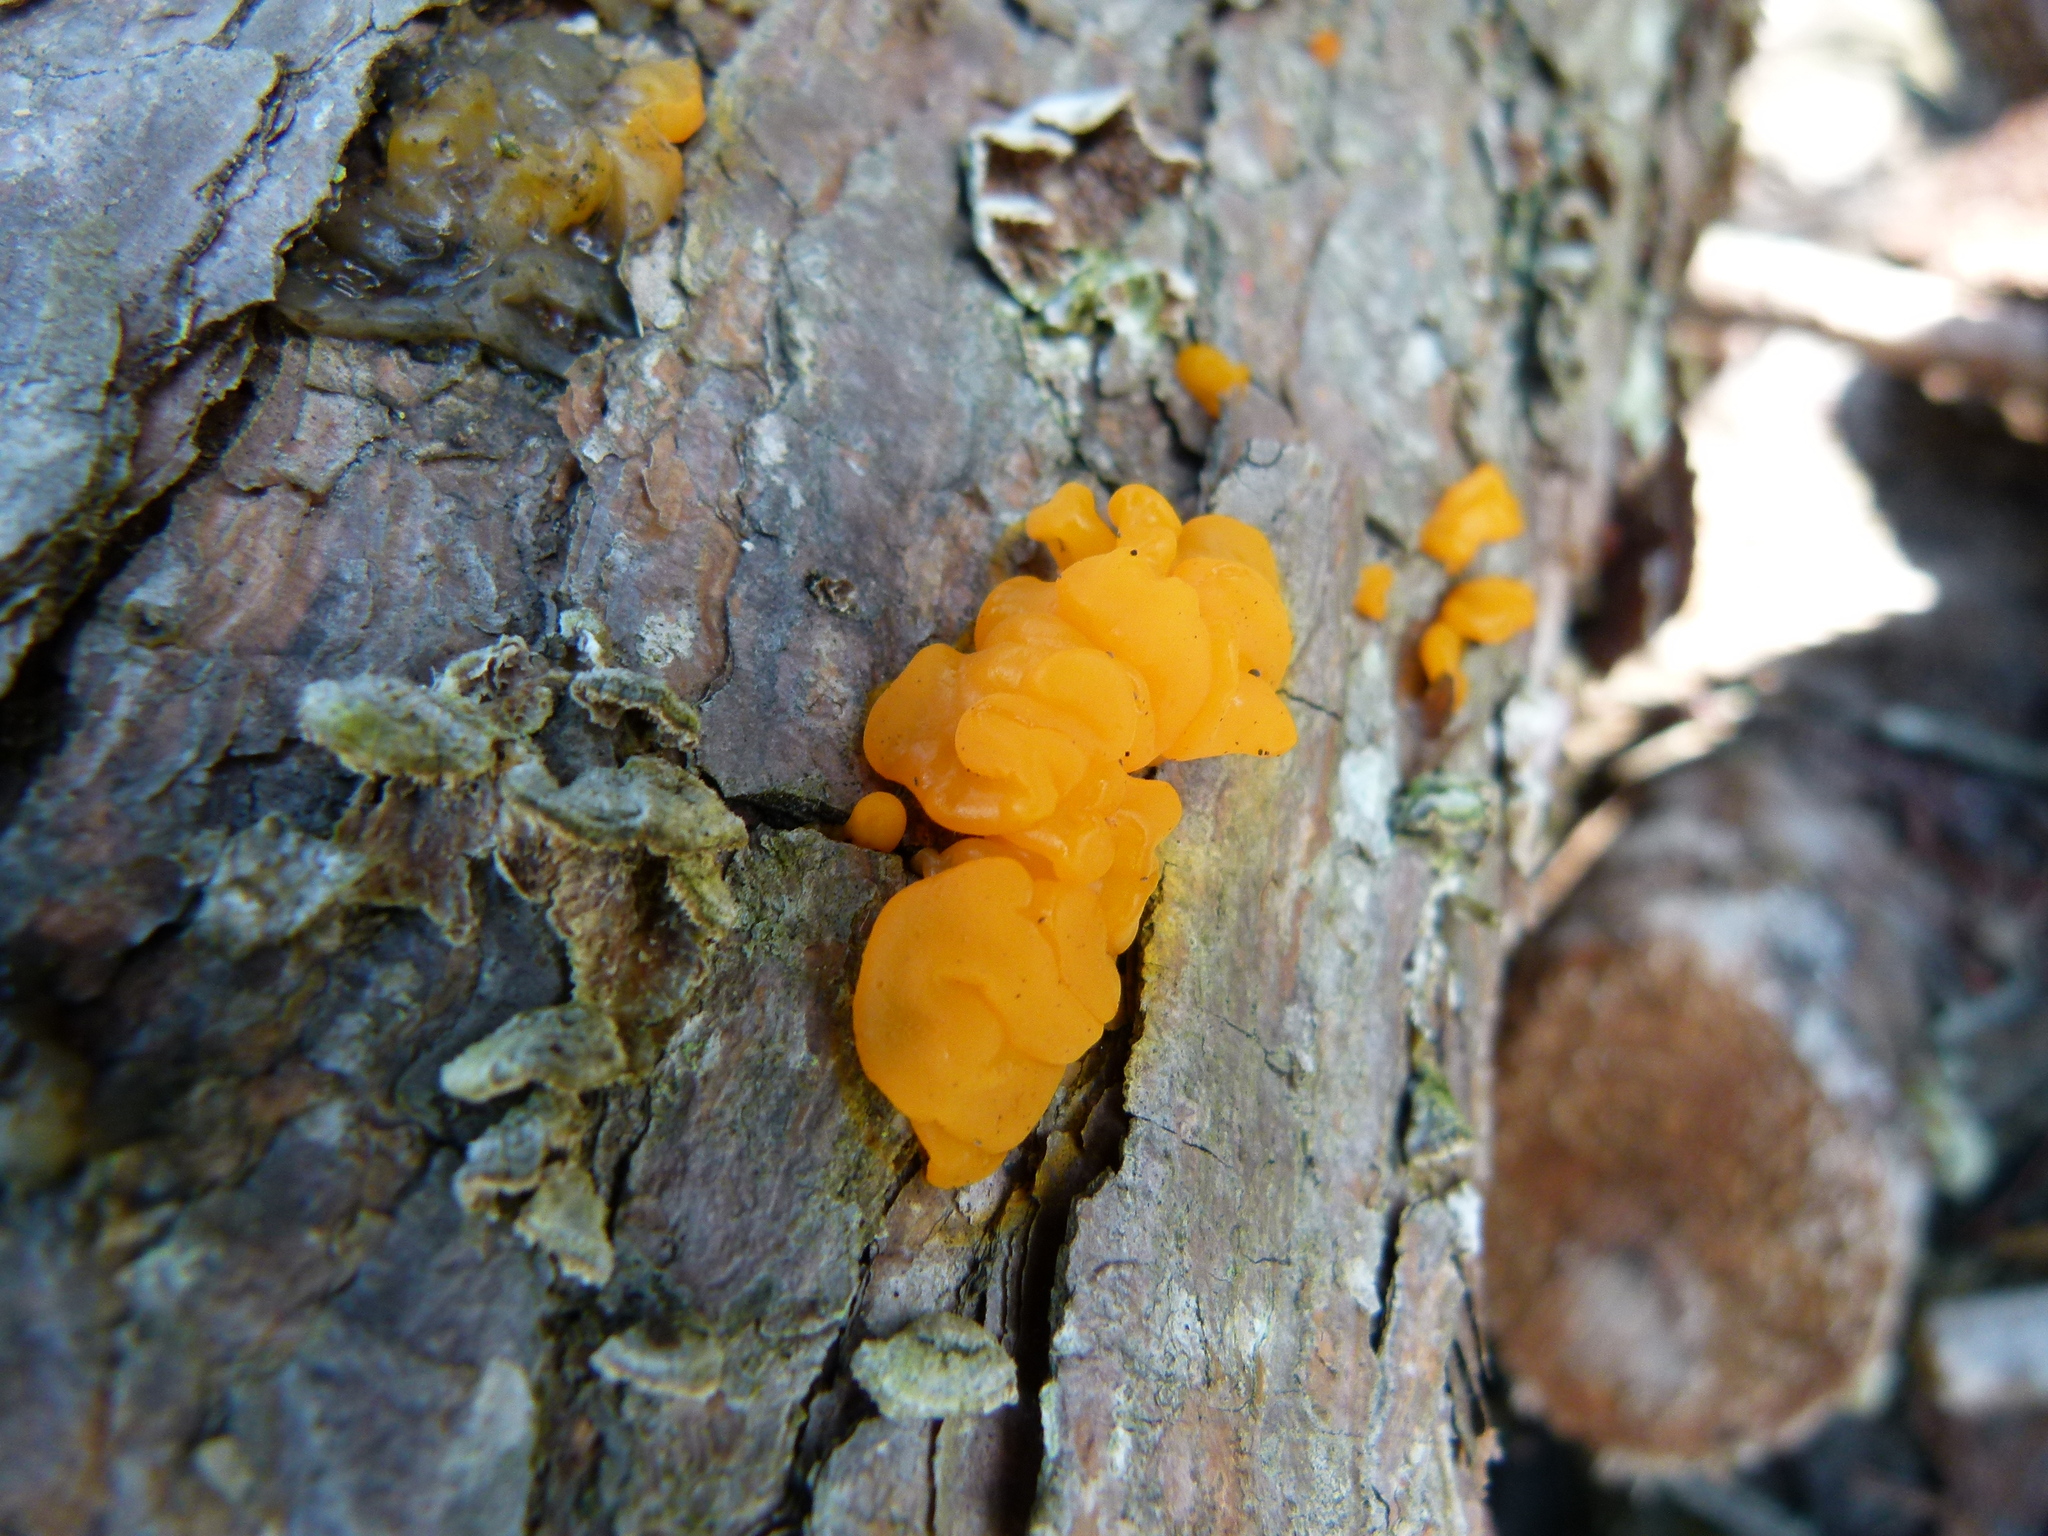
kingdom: Fungi
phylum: Basidiomycota
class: Tremellomycetes
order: Tremellales
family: Tremellaceae
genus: Tremella
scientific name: Tremella mesenterica
